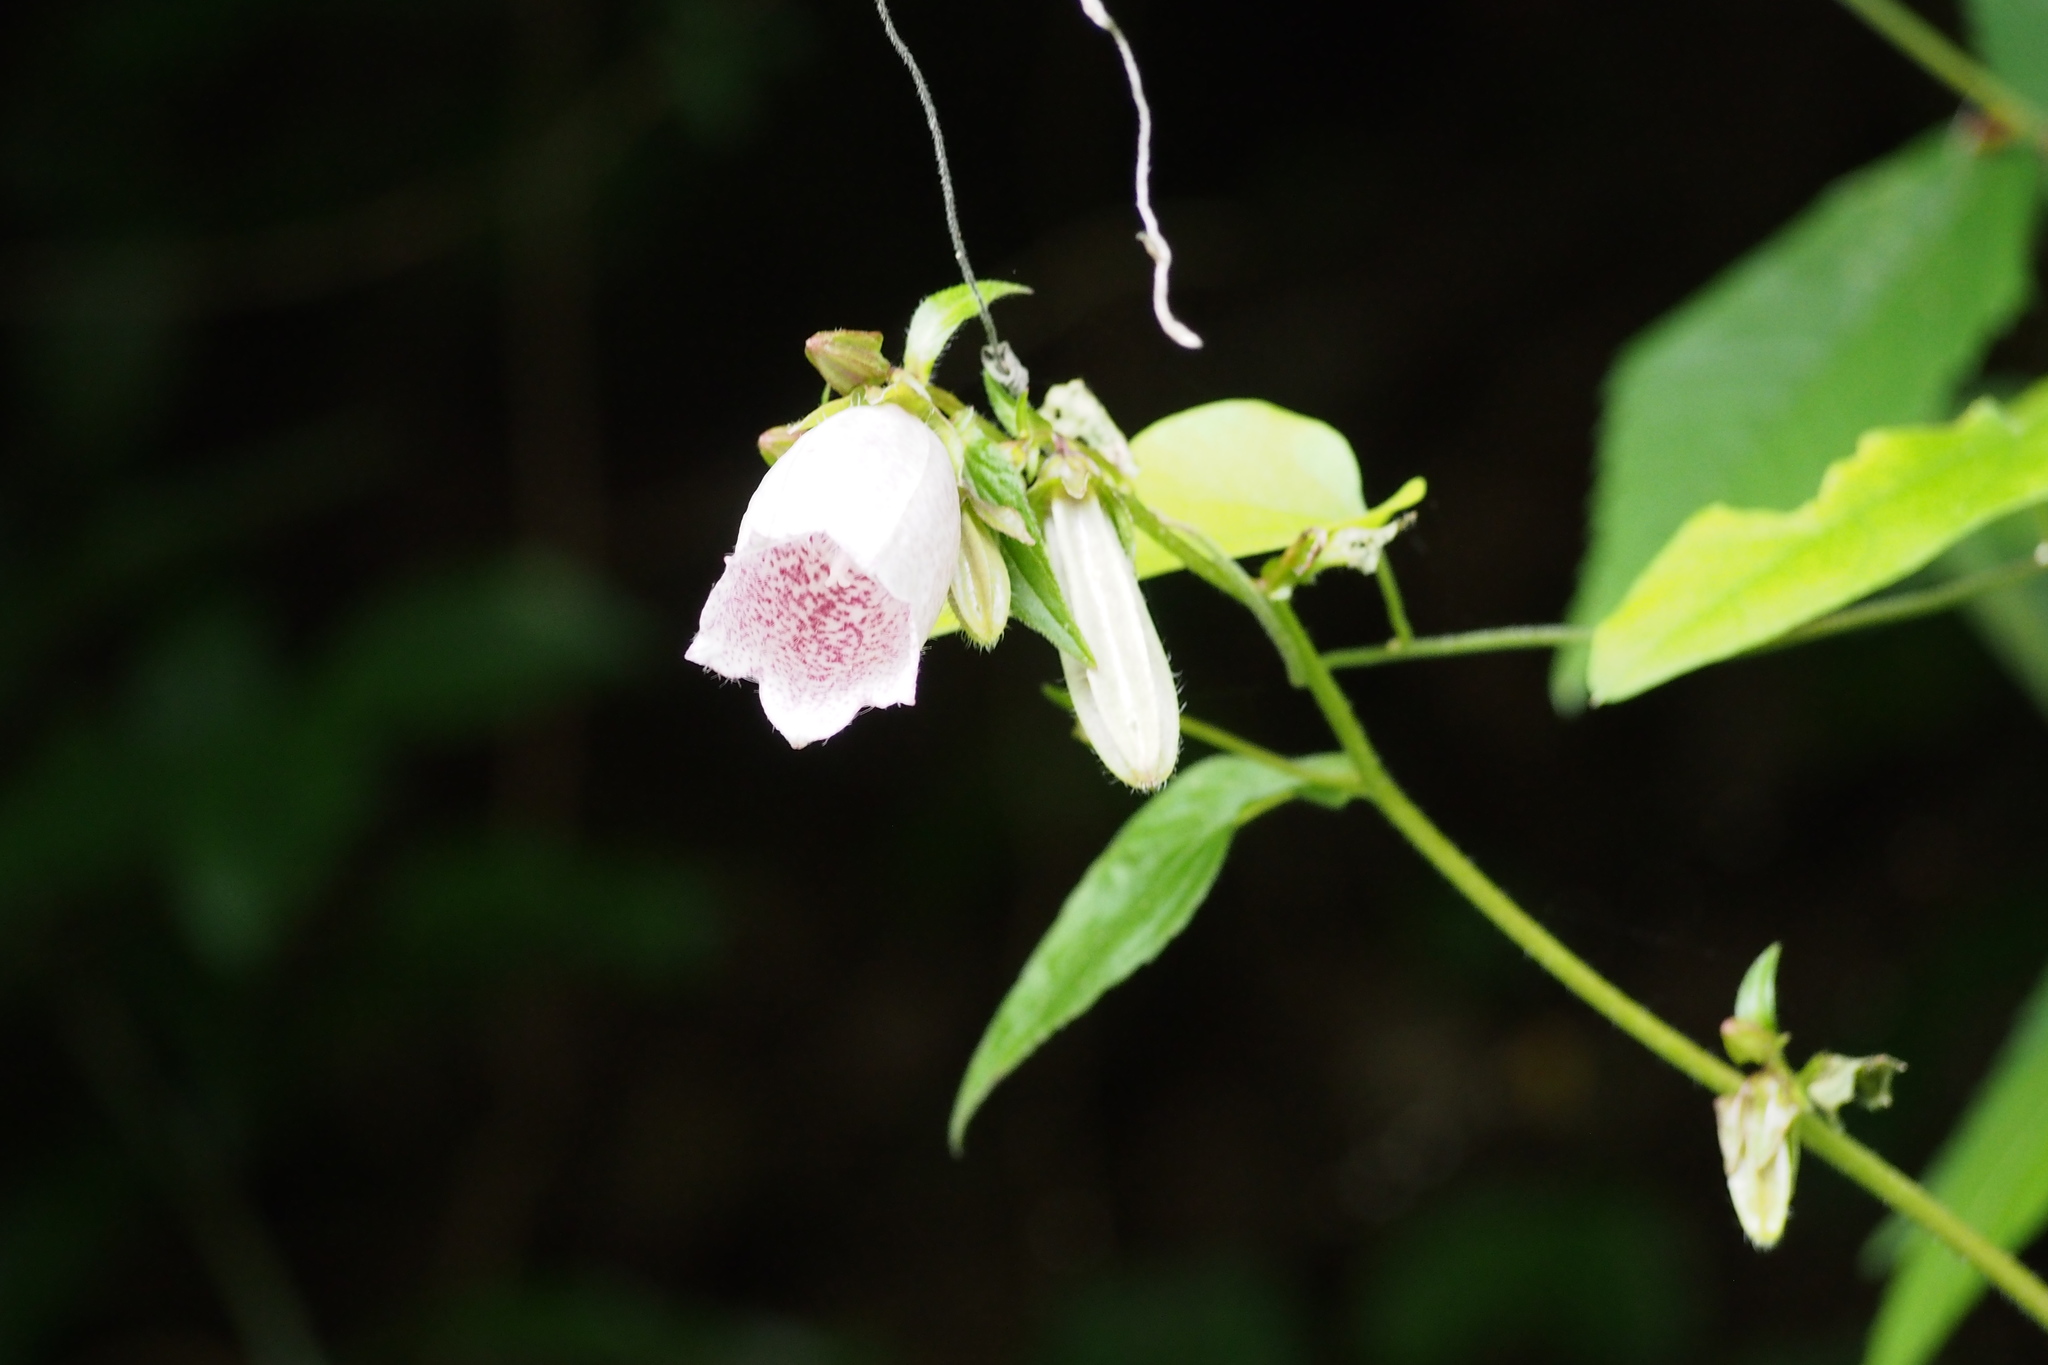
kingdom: Plantae
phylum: Tracheophyta
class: Magnoliopsida
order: Asterales
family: Campanulaceae
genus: Campanula
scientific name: Campanula punctata
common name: Spotted bellflower
